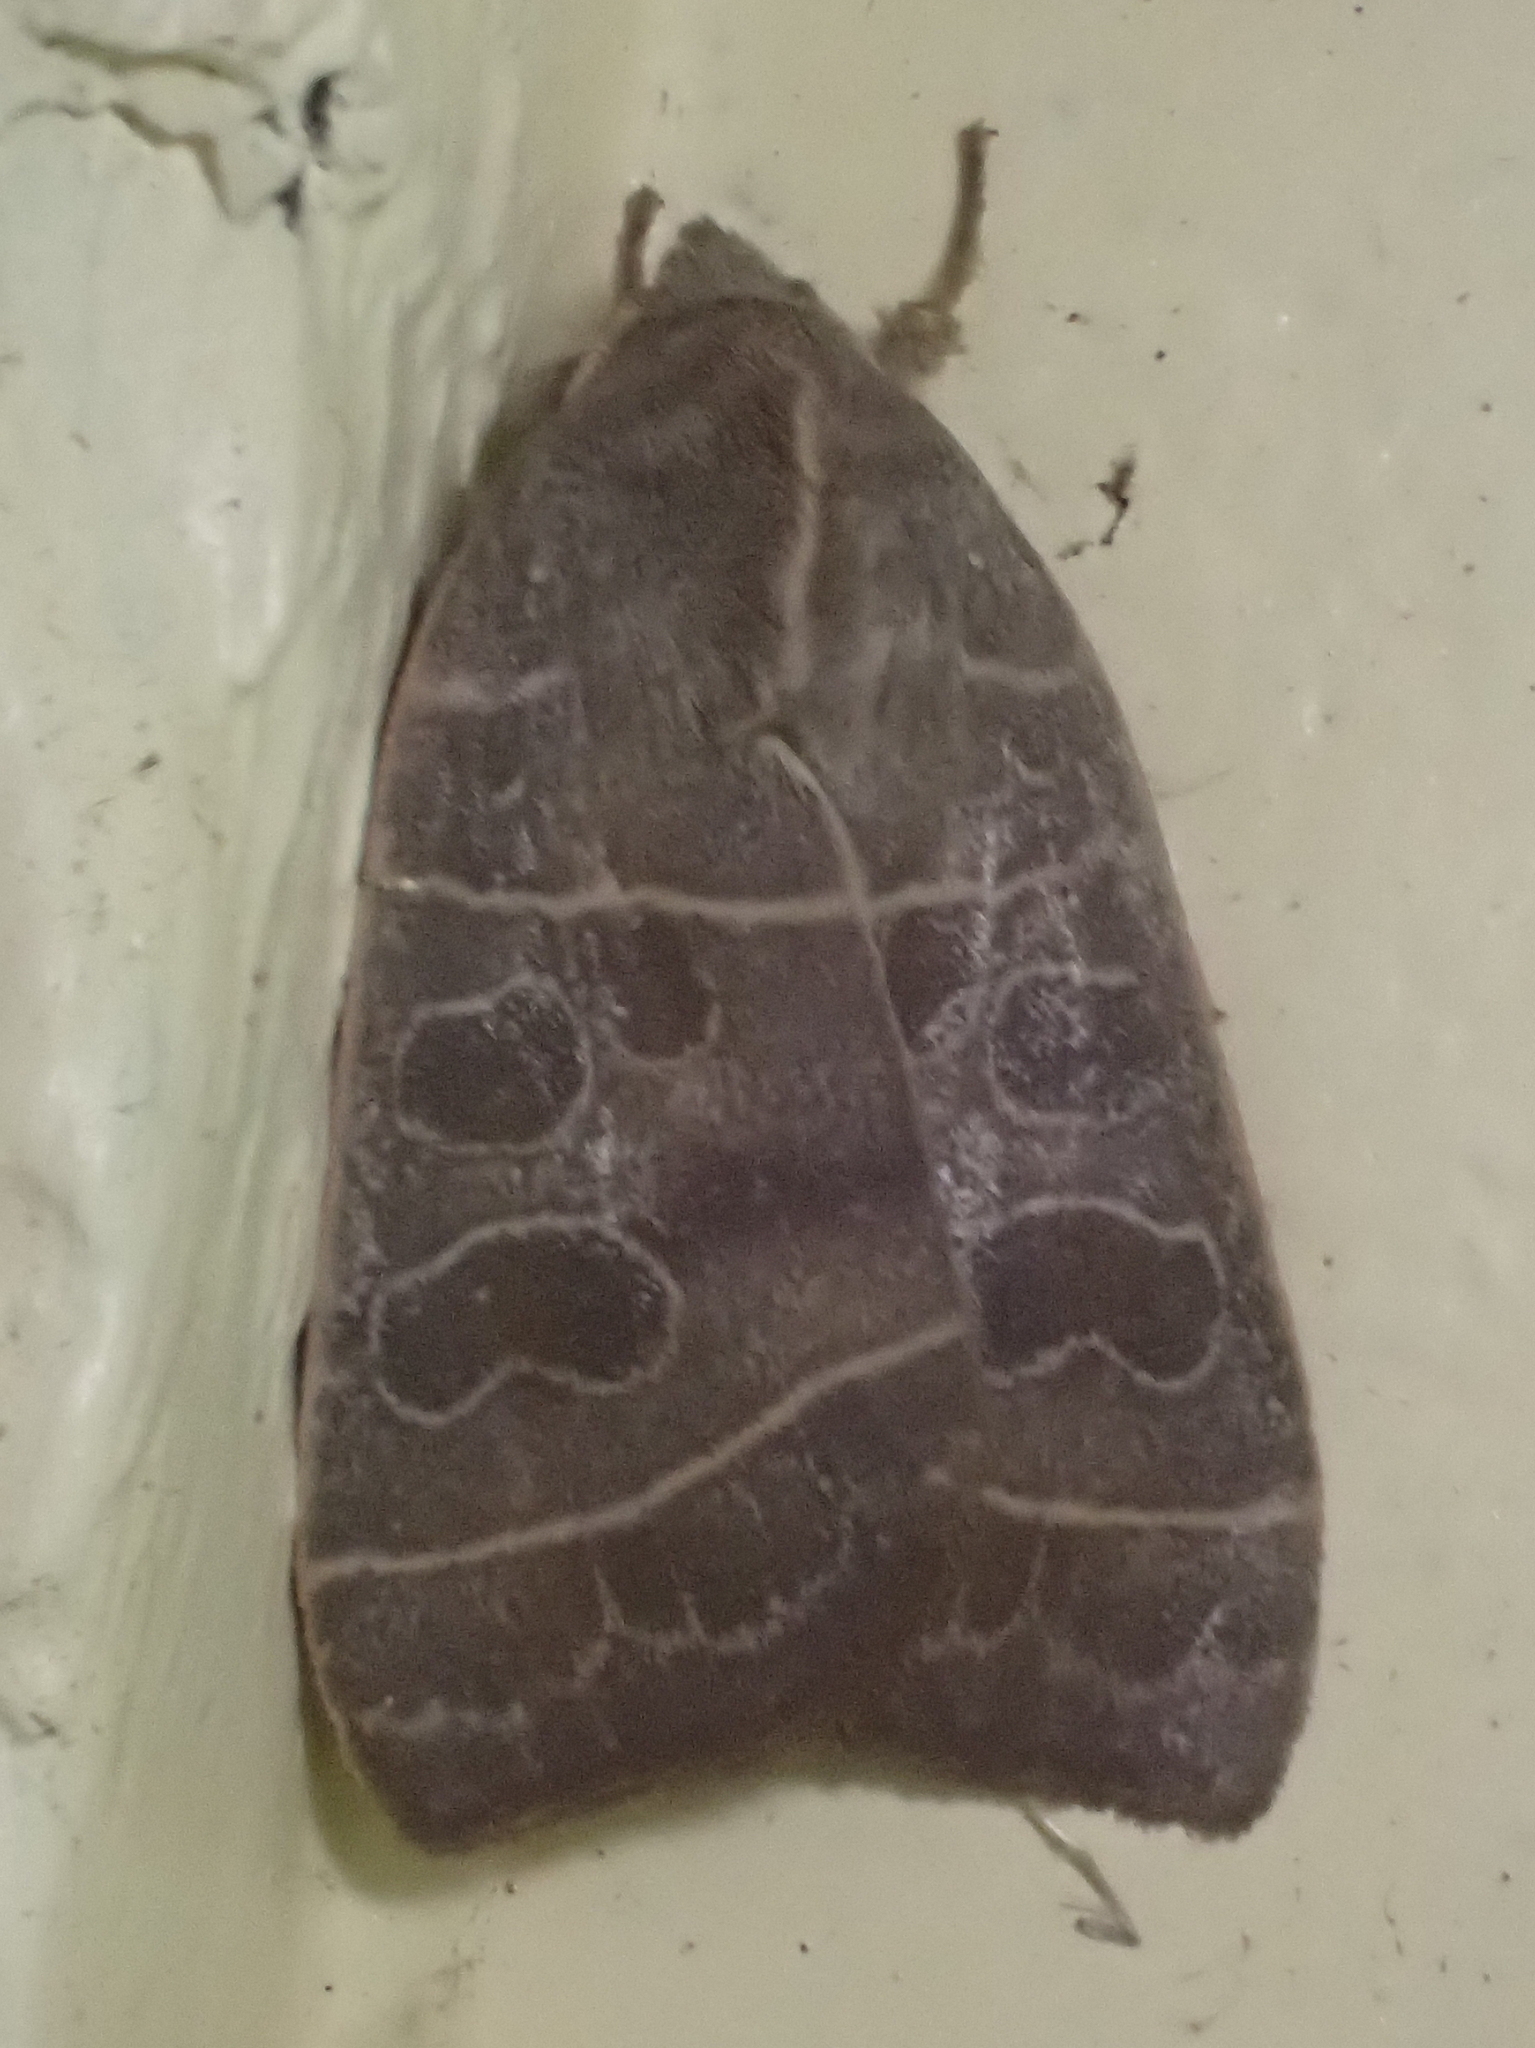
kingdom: Animalia
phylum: Arthropoda
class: Insecta
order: Lepidoptera
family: Noctuidae
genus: Ipimorpha
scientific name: Ipimorpha pleonectusa
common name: Even-lined sallow
